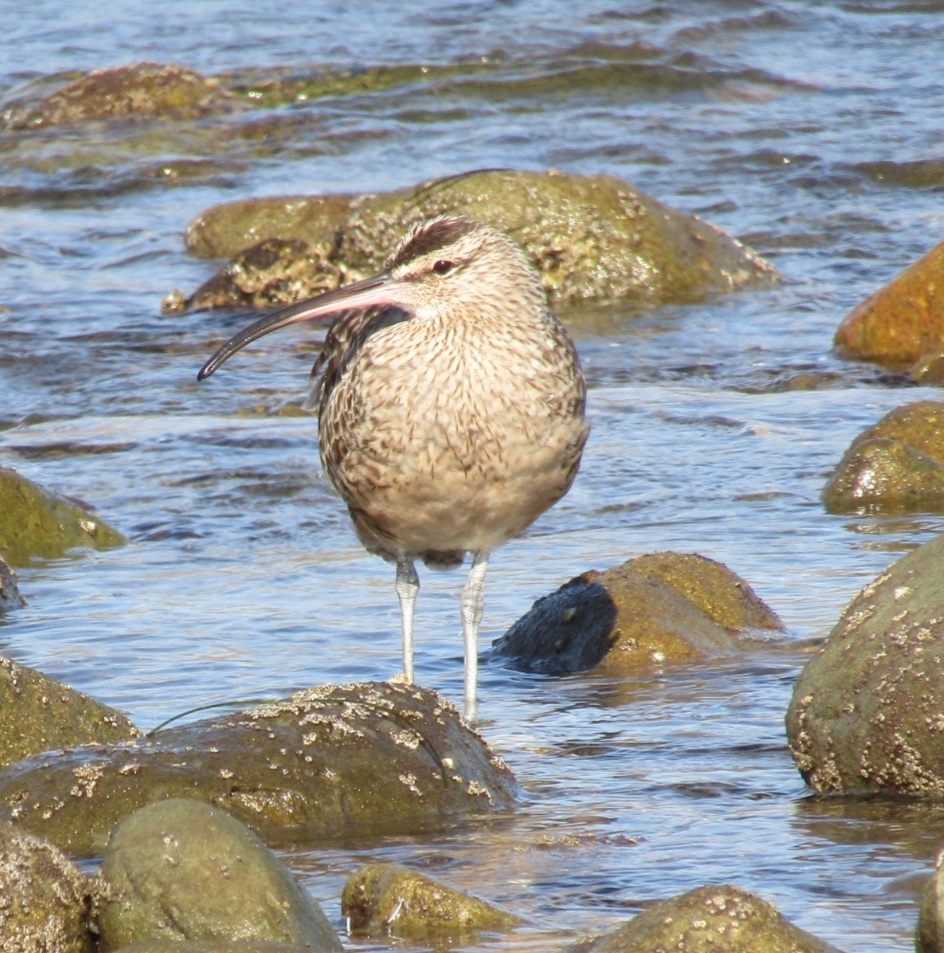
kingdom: Animalia
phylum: Chordata
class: Aves
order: Charadriiformes
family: Scolopacidae
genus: Numenius
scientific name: Numenius phaeopus
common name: Whimbrel
